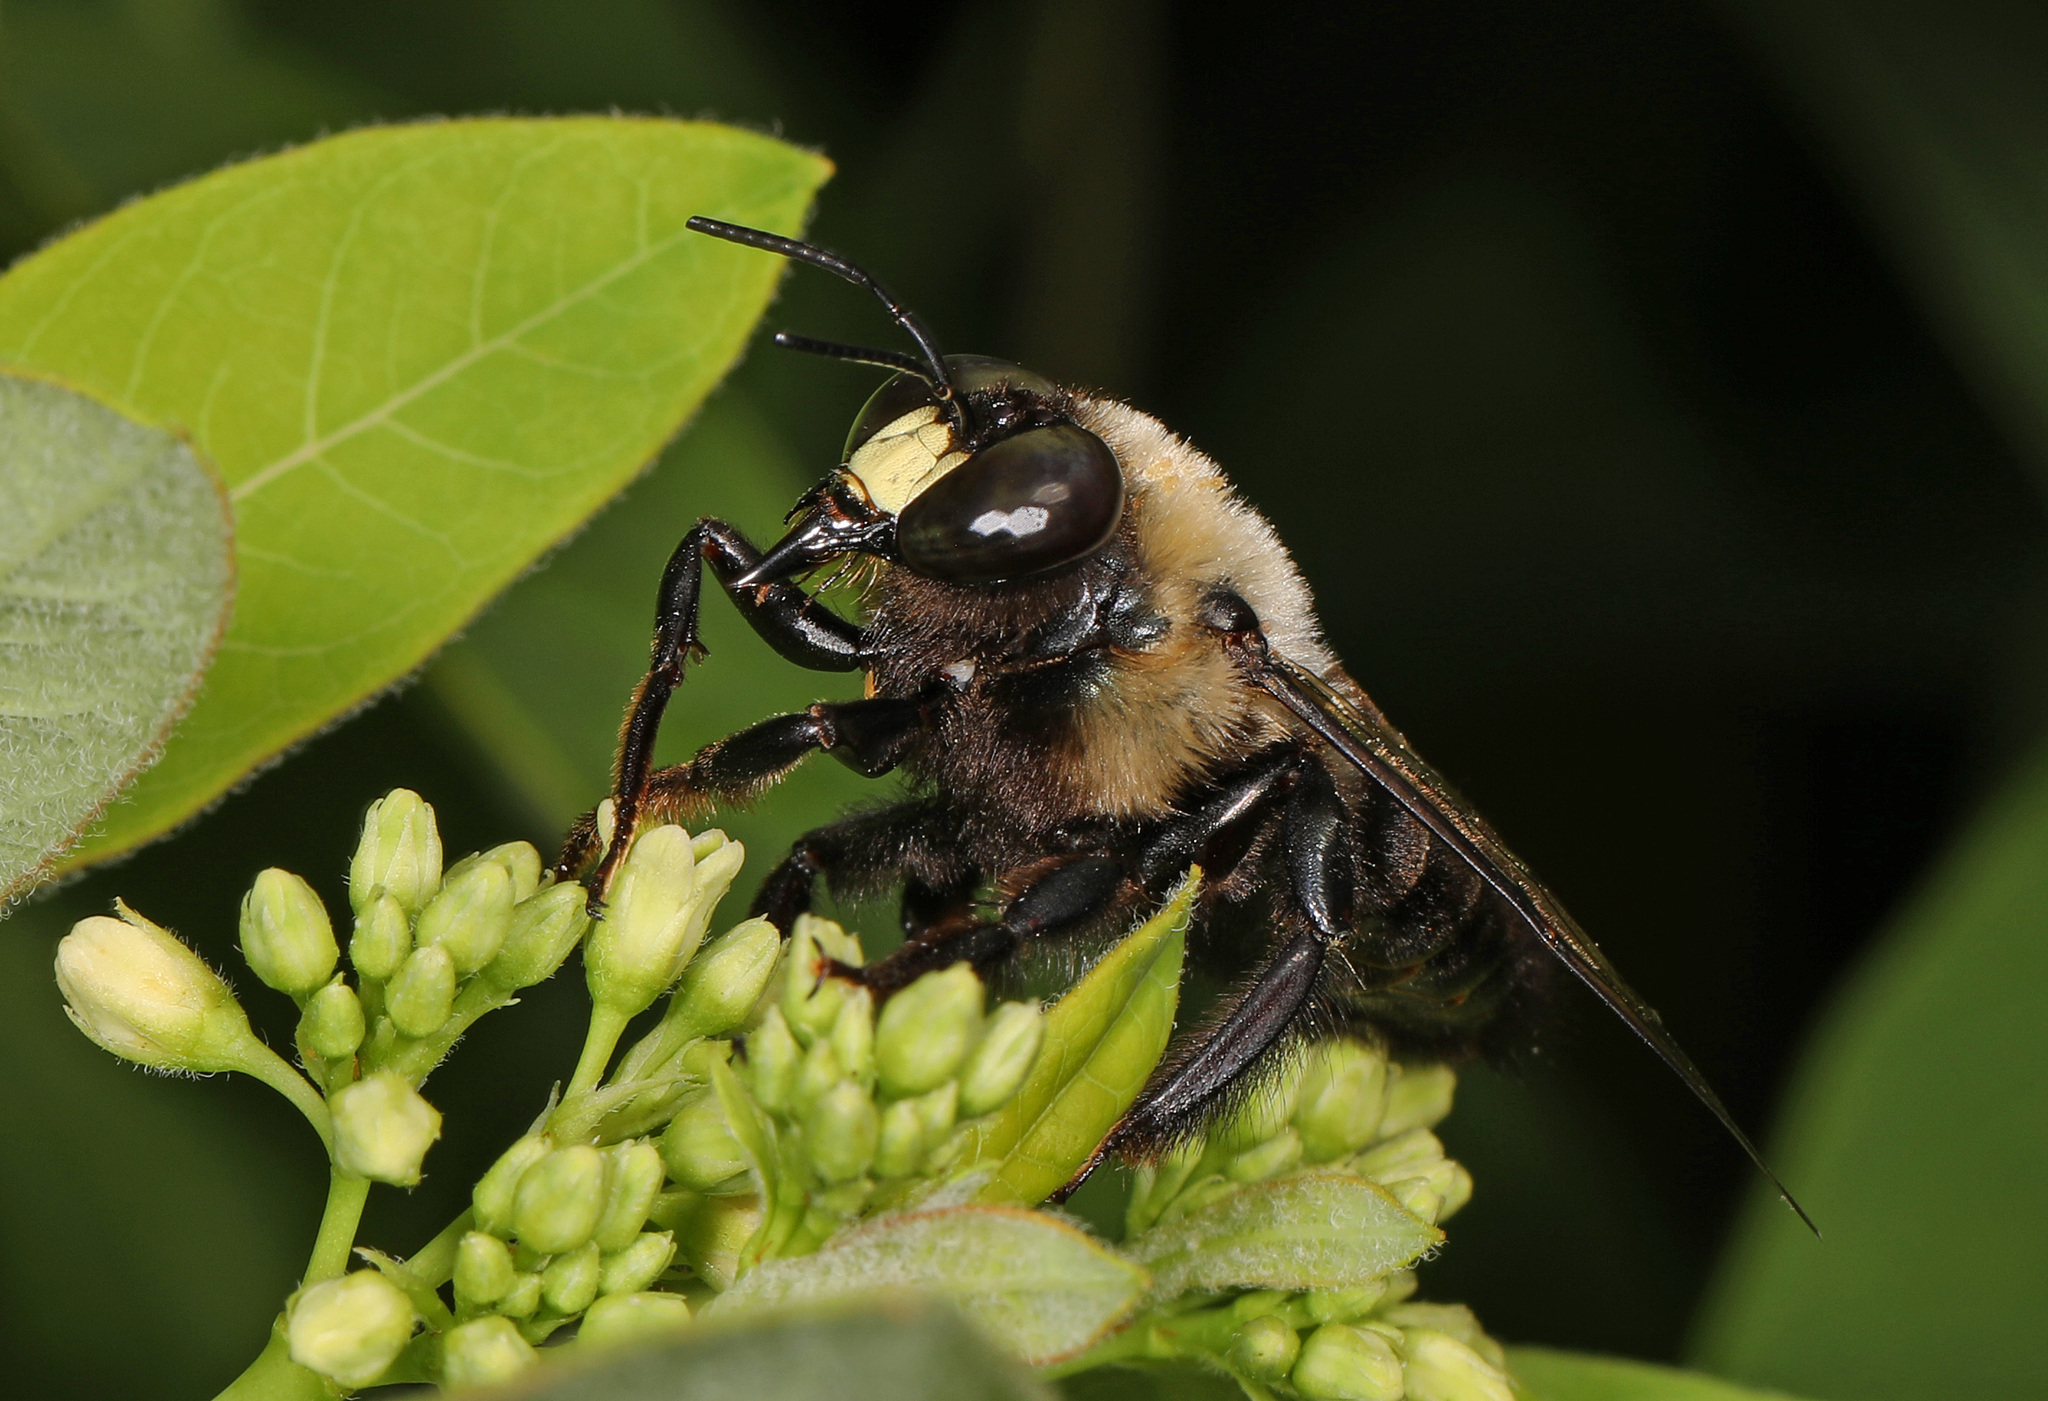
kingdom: Animalia
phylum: Arthropoda
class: Insecta
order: Hymenoptera
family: Apidae
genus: Xylocopa
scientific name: Xylocopa virginica
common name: Carpenter bee
